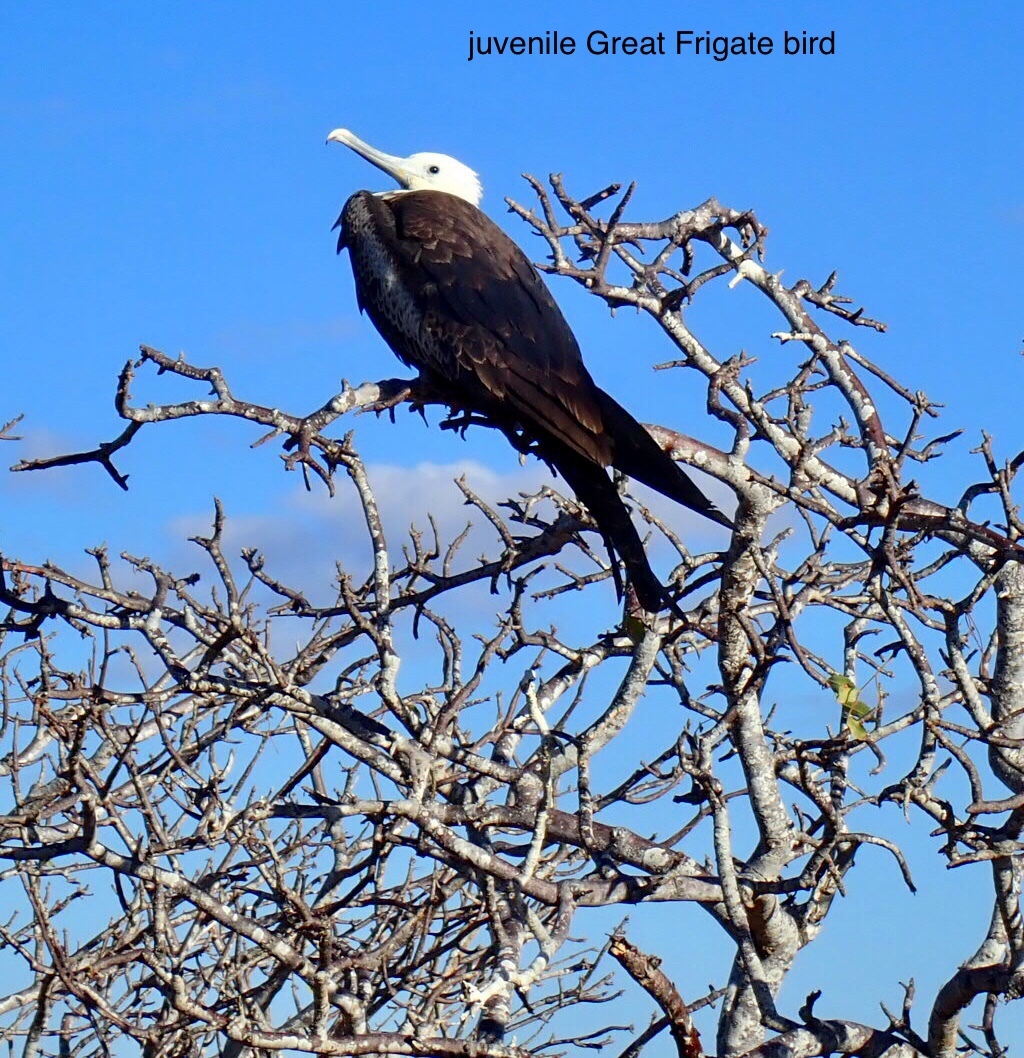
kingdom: Animalia
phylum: Chordata
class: Aves
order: Suliformes
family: Fregatidae
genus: Fregata
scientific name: Fregata magnificens
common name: Magnificent frigatebird
